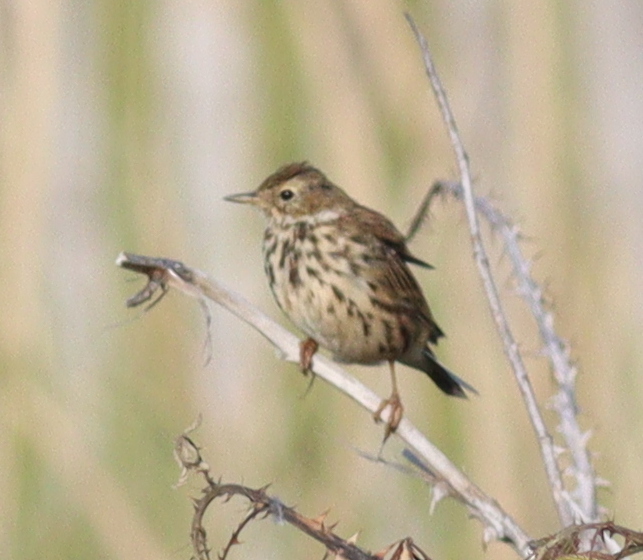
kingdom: Animalia
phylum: Chordata
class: Aves
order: Passeriformes
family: Motacillidae
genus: Anthus
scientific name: Anthus pratensis
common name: Meadow pipit
